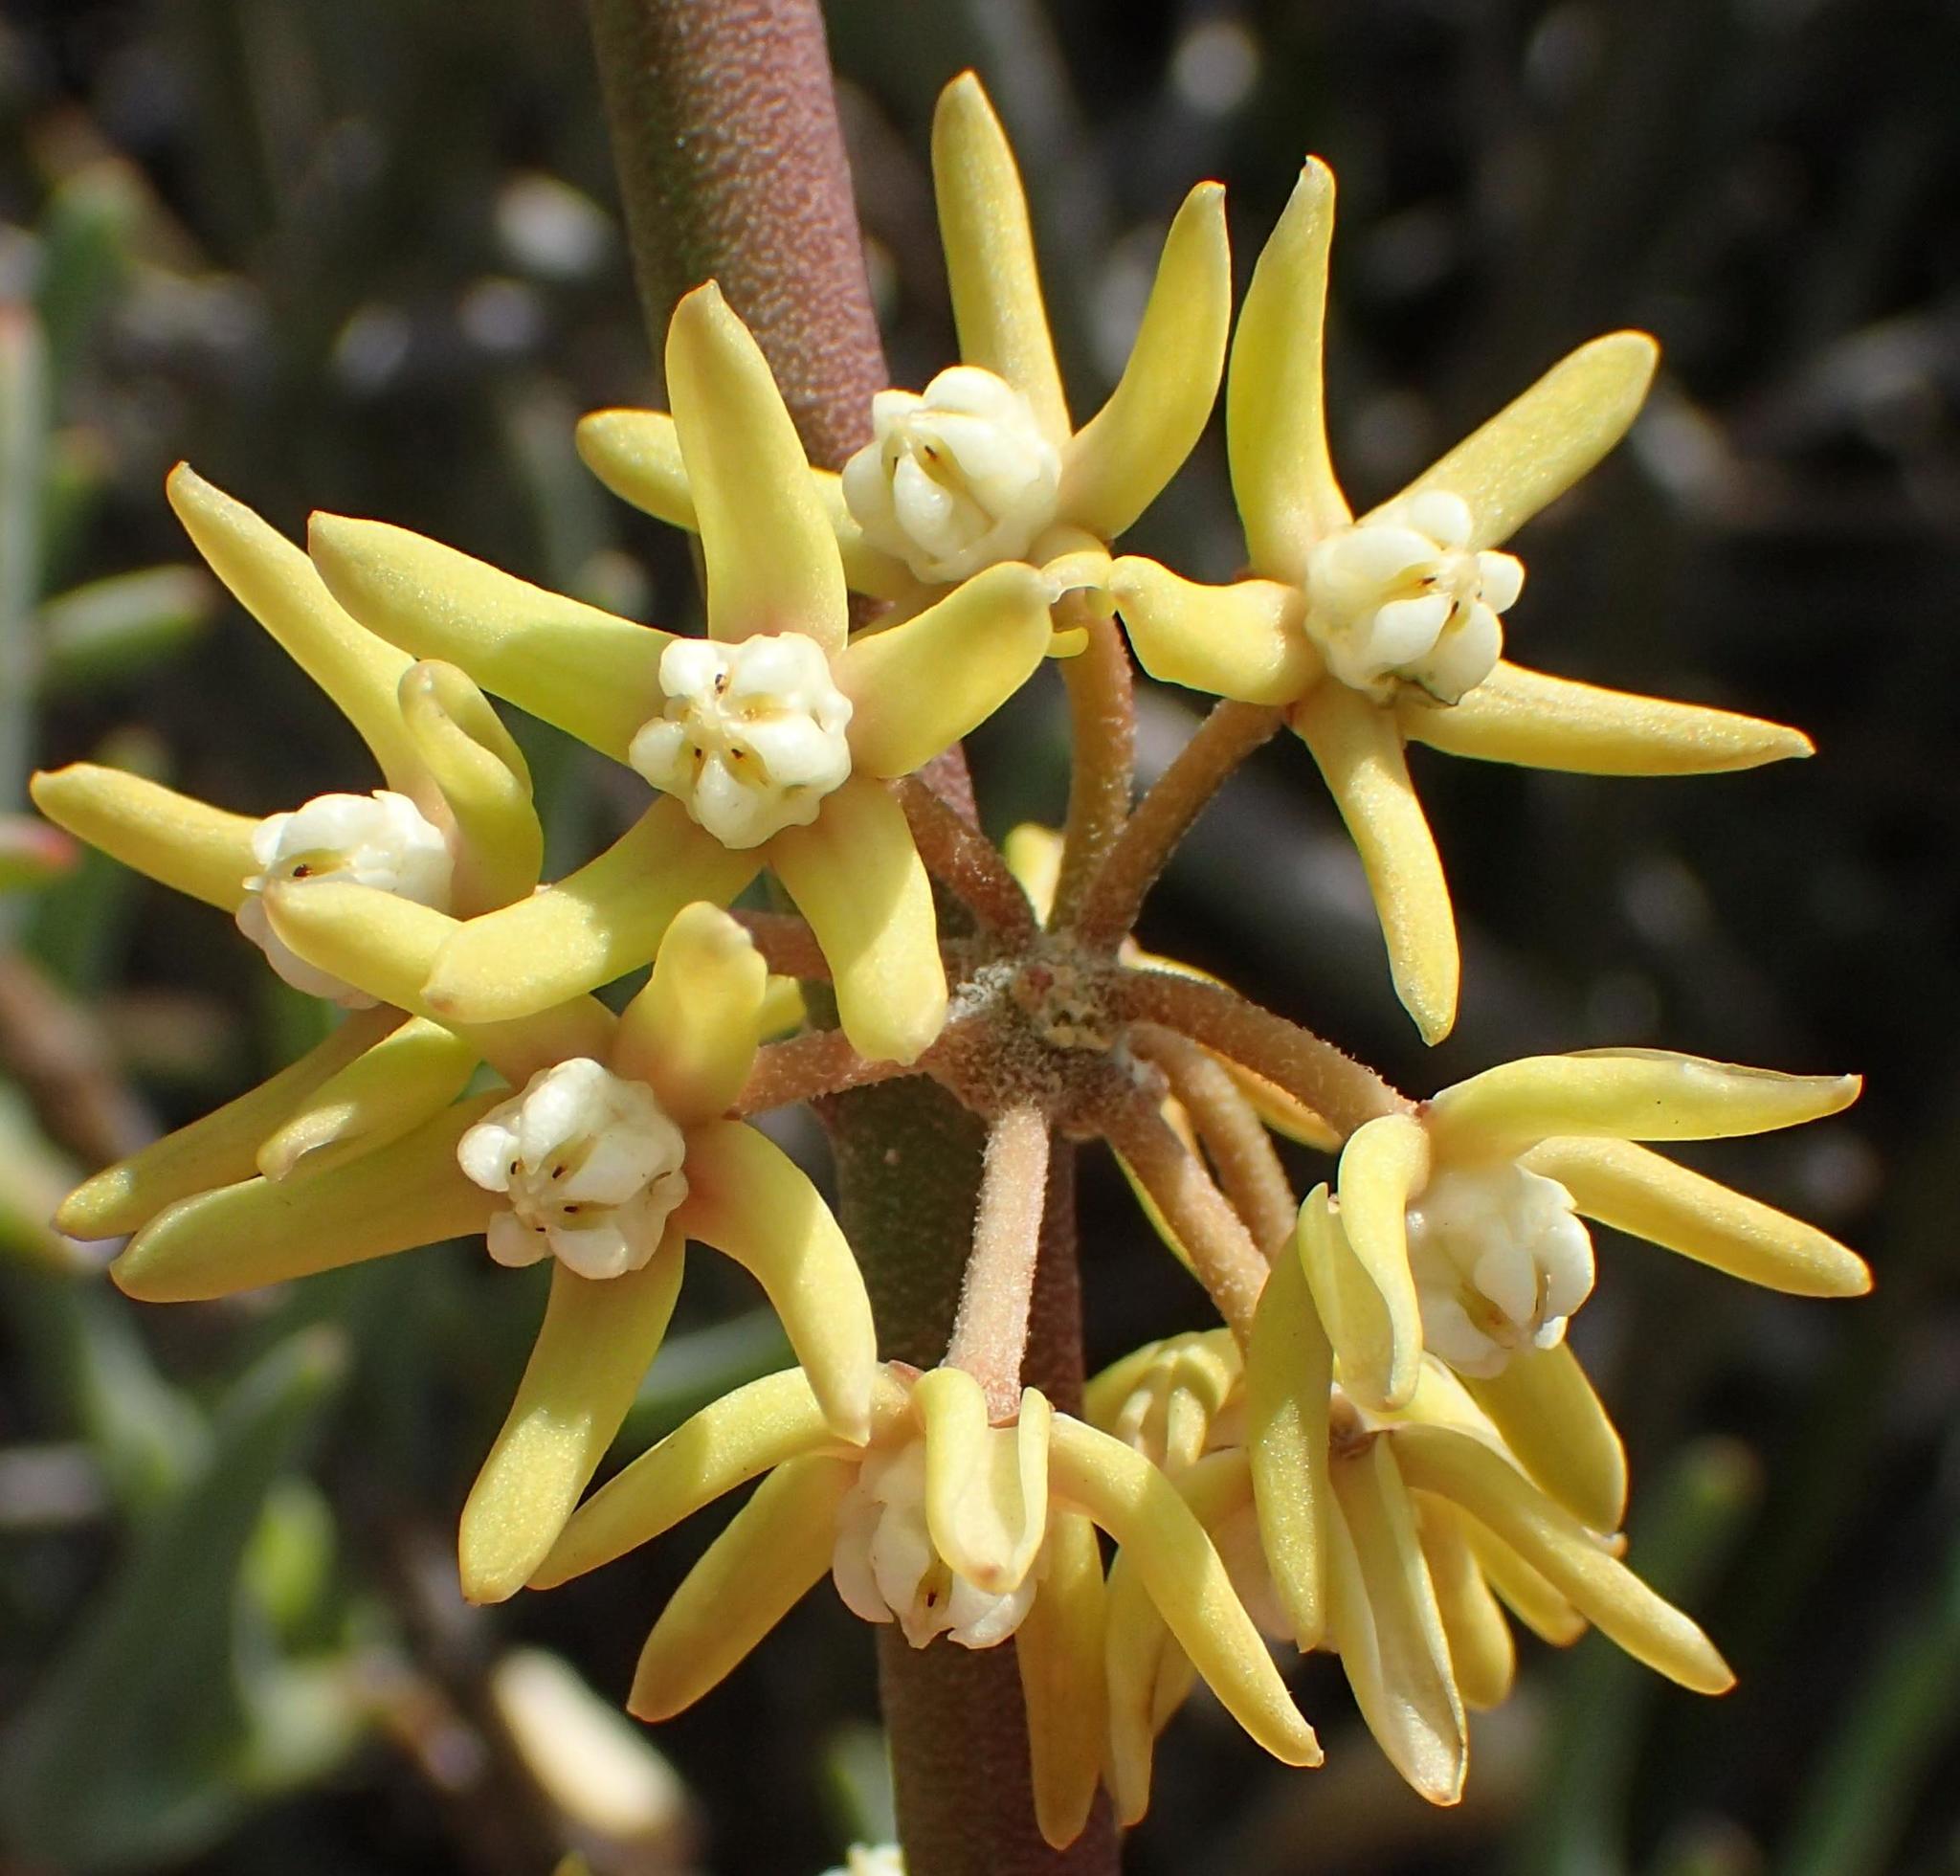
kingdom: Plantae
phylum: Tracheophyta
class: Magnoliopsida
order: Gentianales
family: Apocynaceae
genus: Cynanchum
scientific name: Cynanchum viminale
